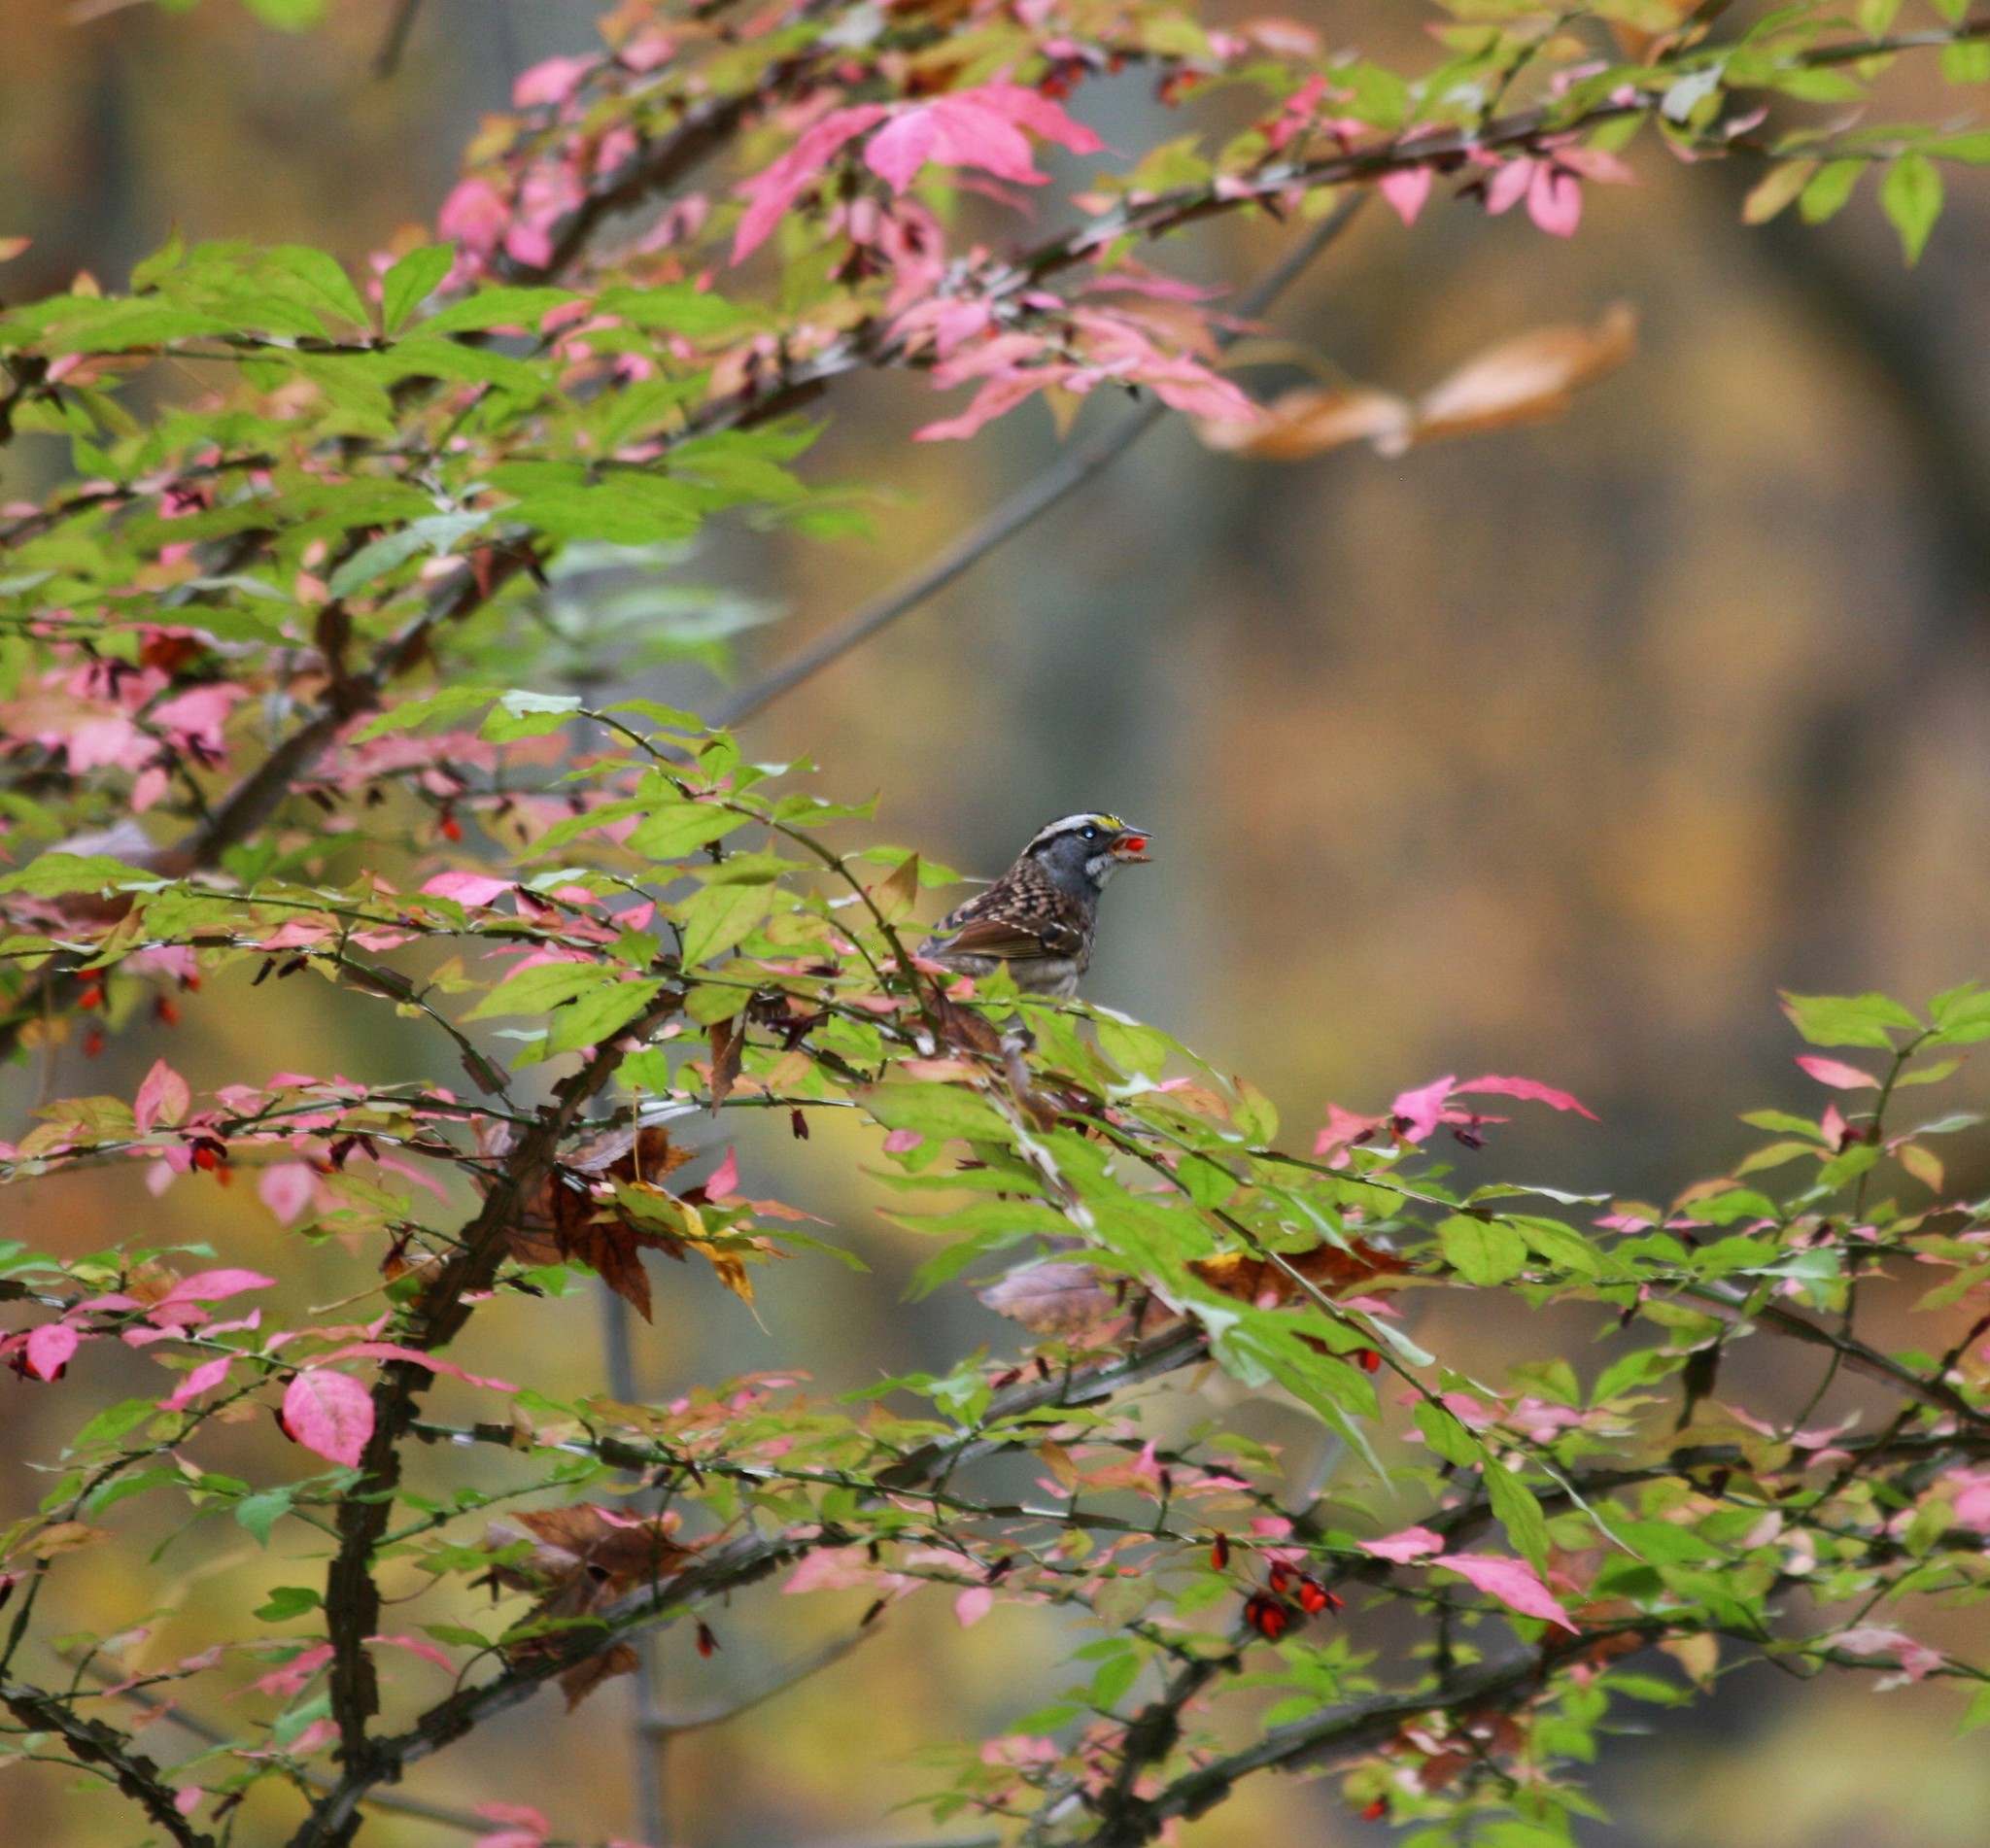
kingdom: Animalia
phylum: Chordata
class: Aves
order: Passeriformes
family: Passerellidae
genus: Zonotrichia
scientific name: Zonotrichia albicollis
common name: White-throated sparrow
